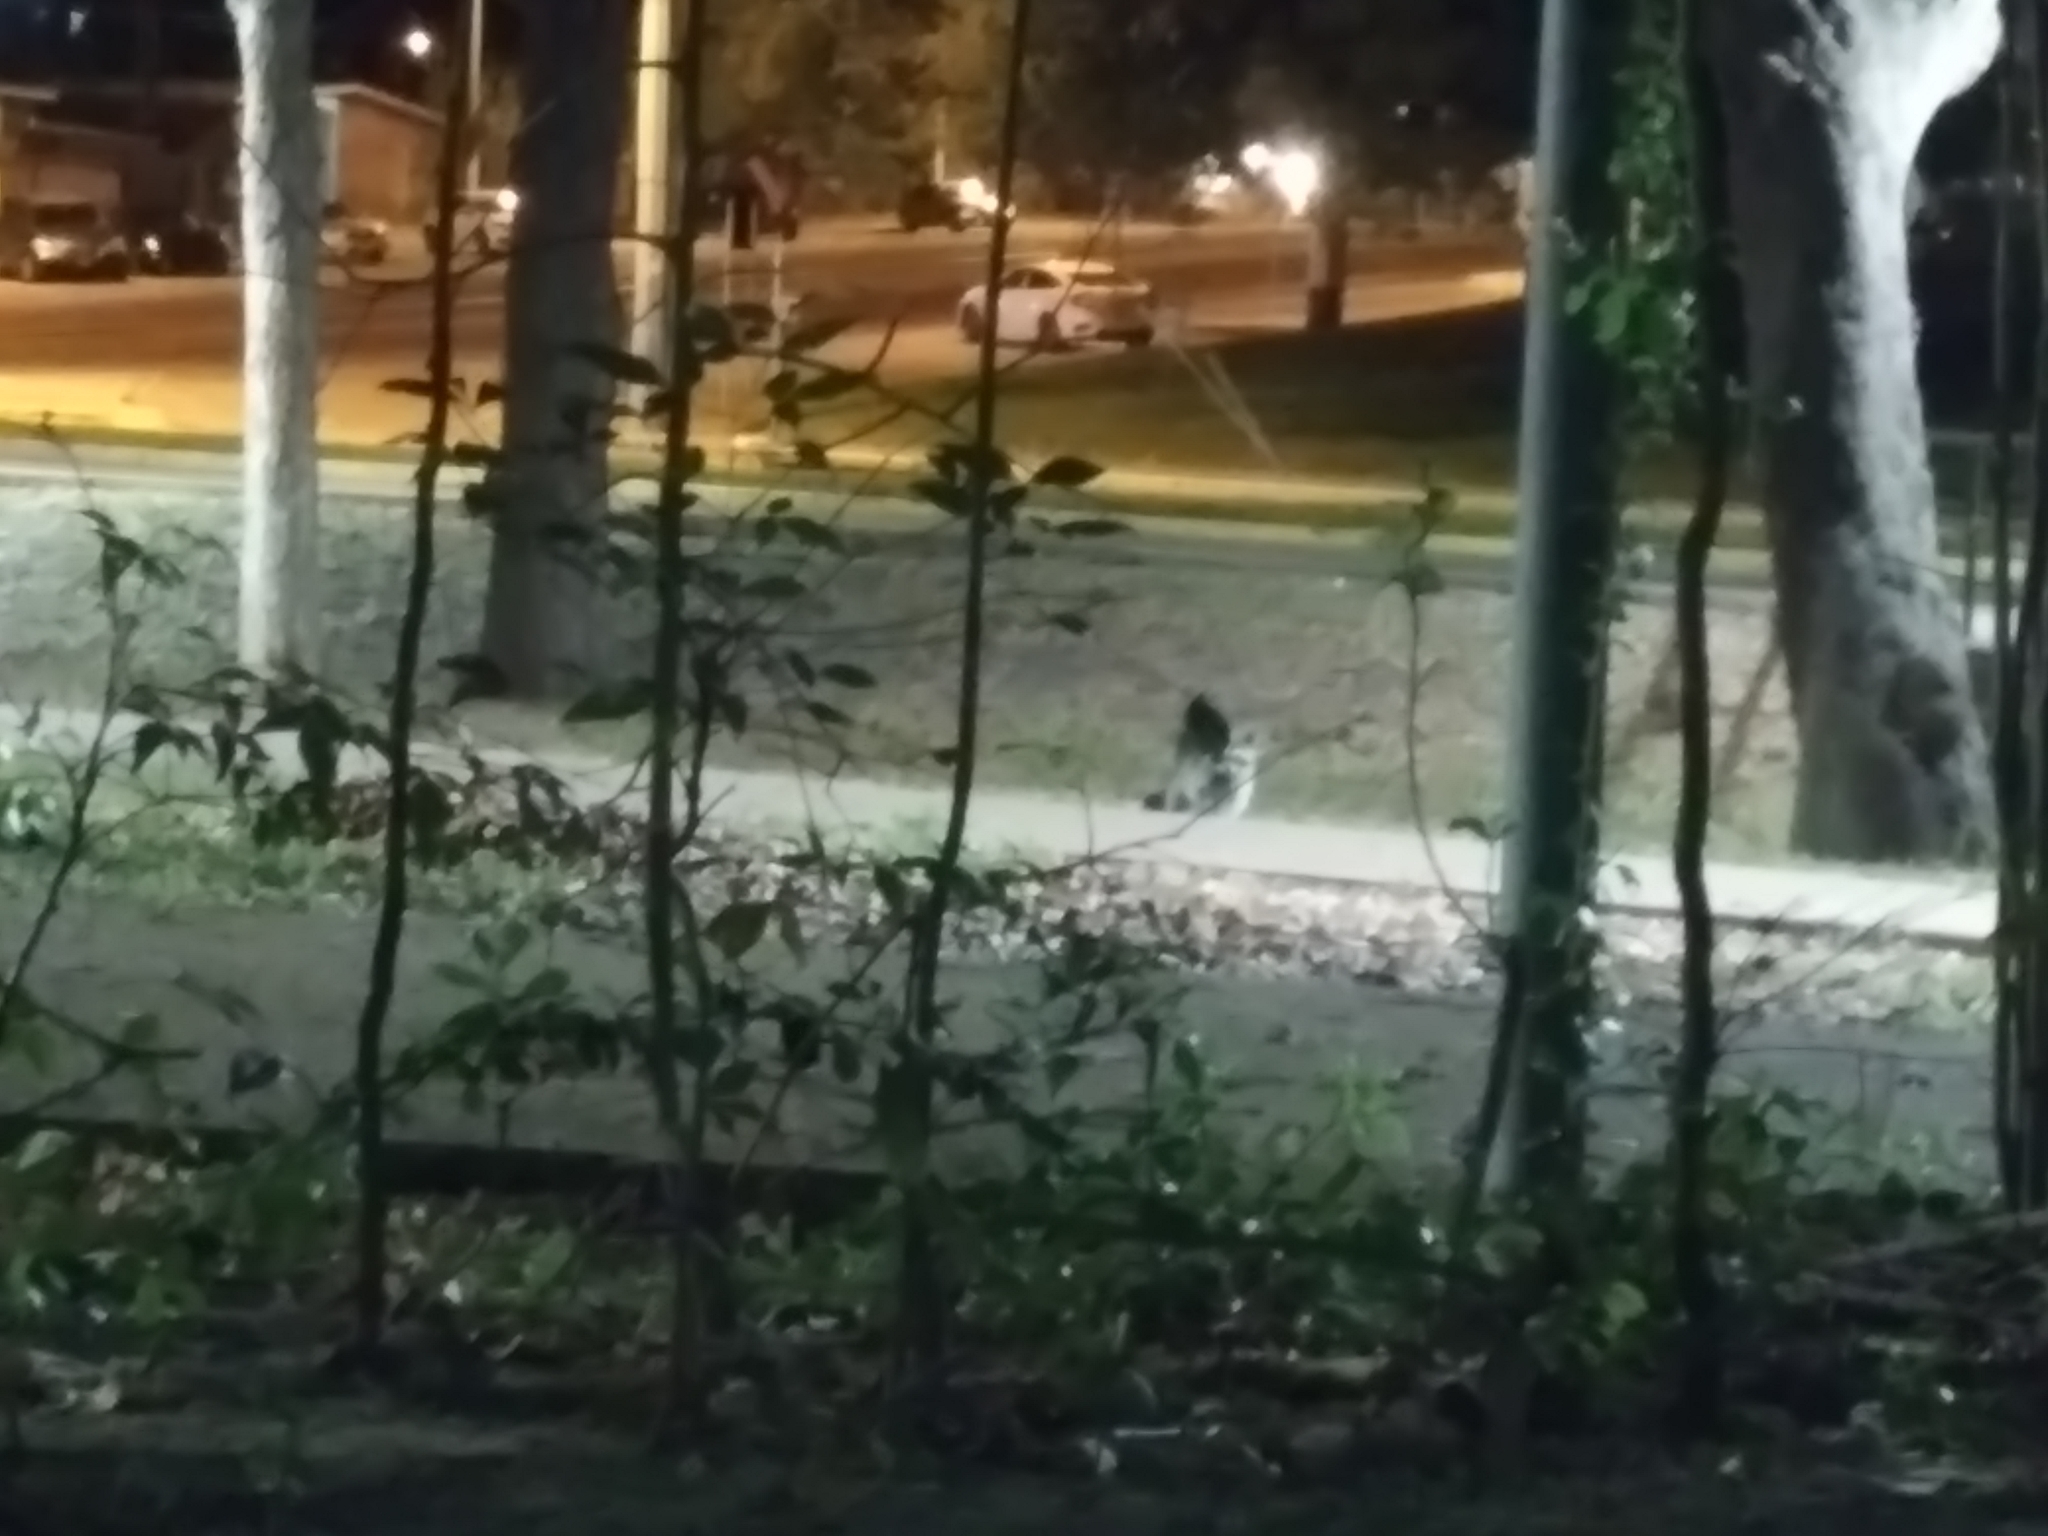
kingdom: Animalia
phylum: Chordata
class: Mammalia
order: Carnivora
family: Procyonidae
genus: Procyon
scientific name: Procyon lotor
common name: Raccoon
